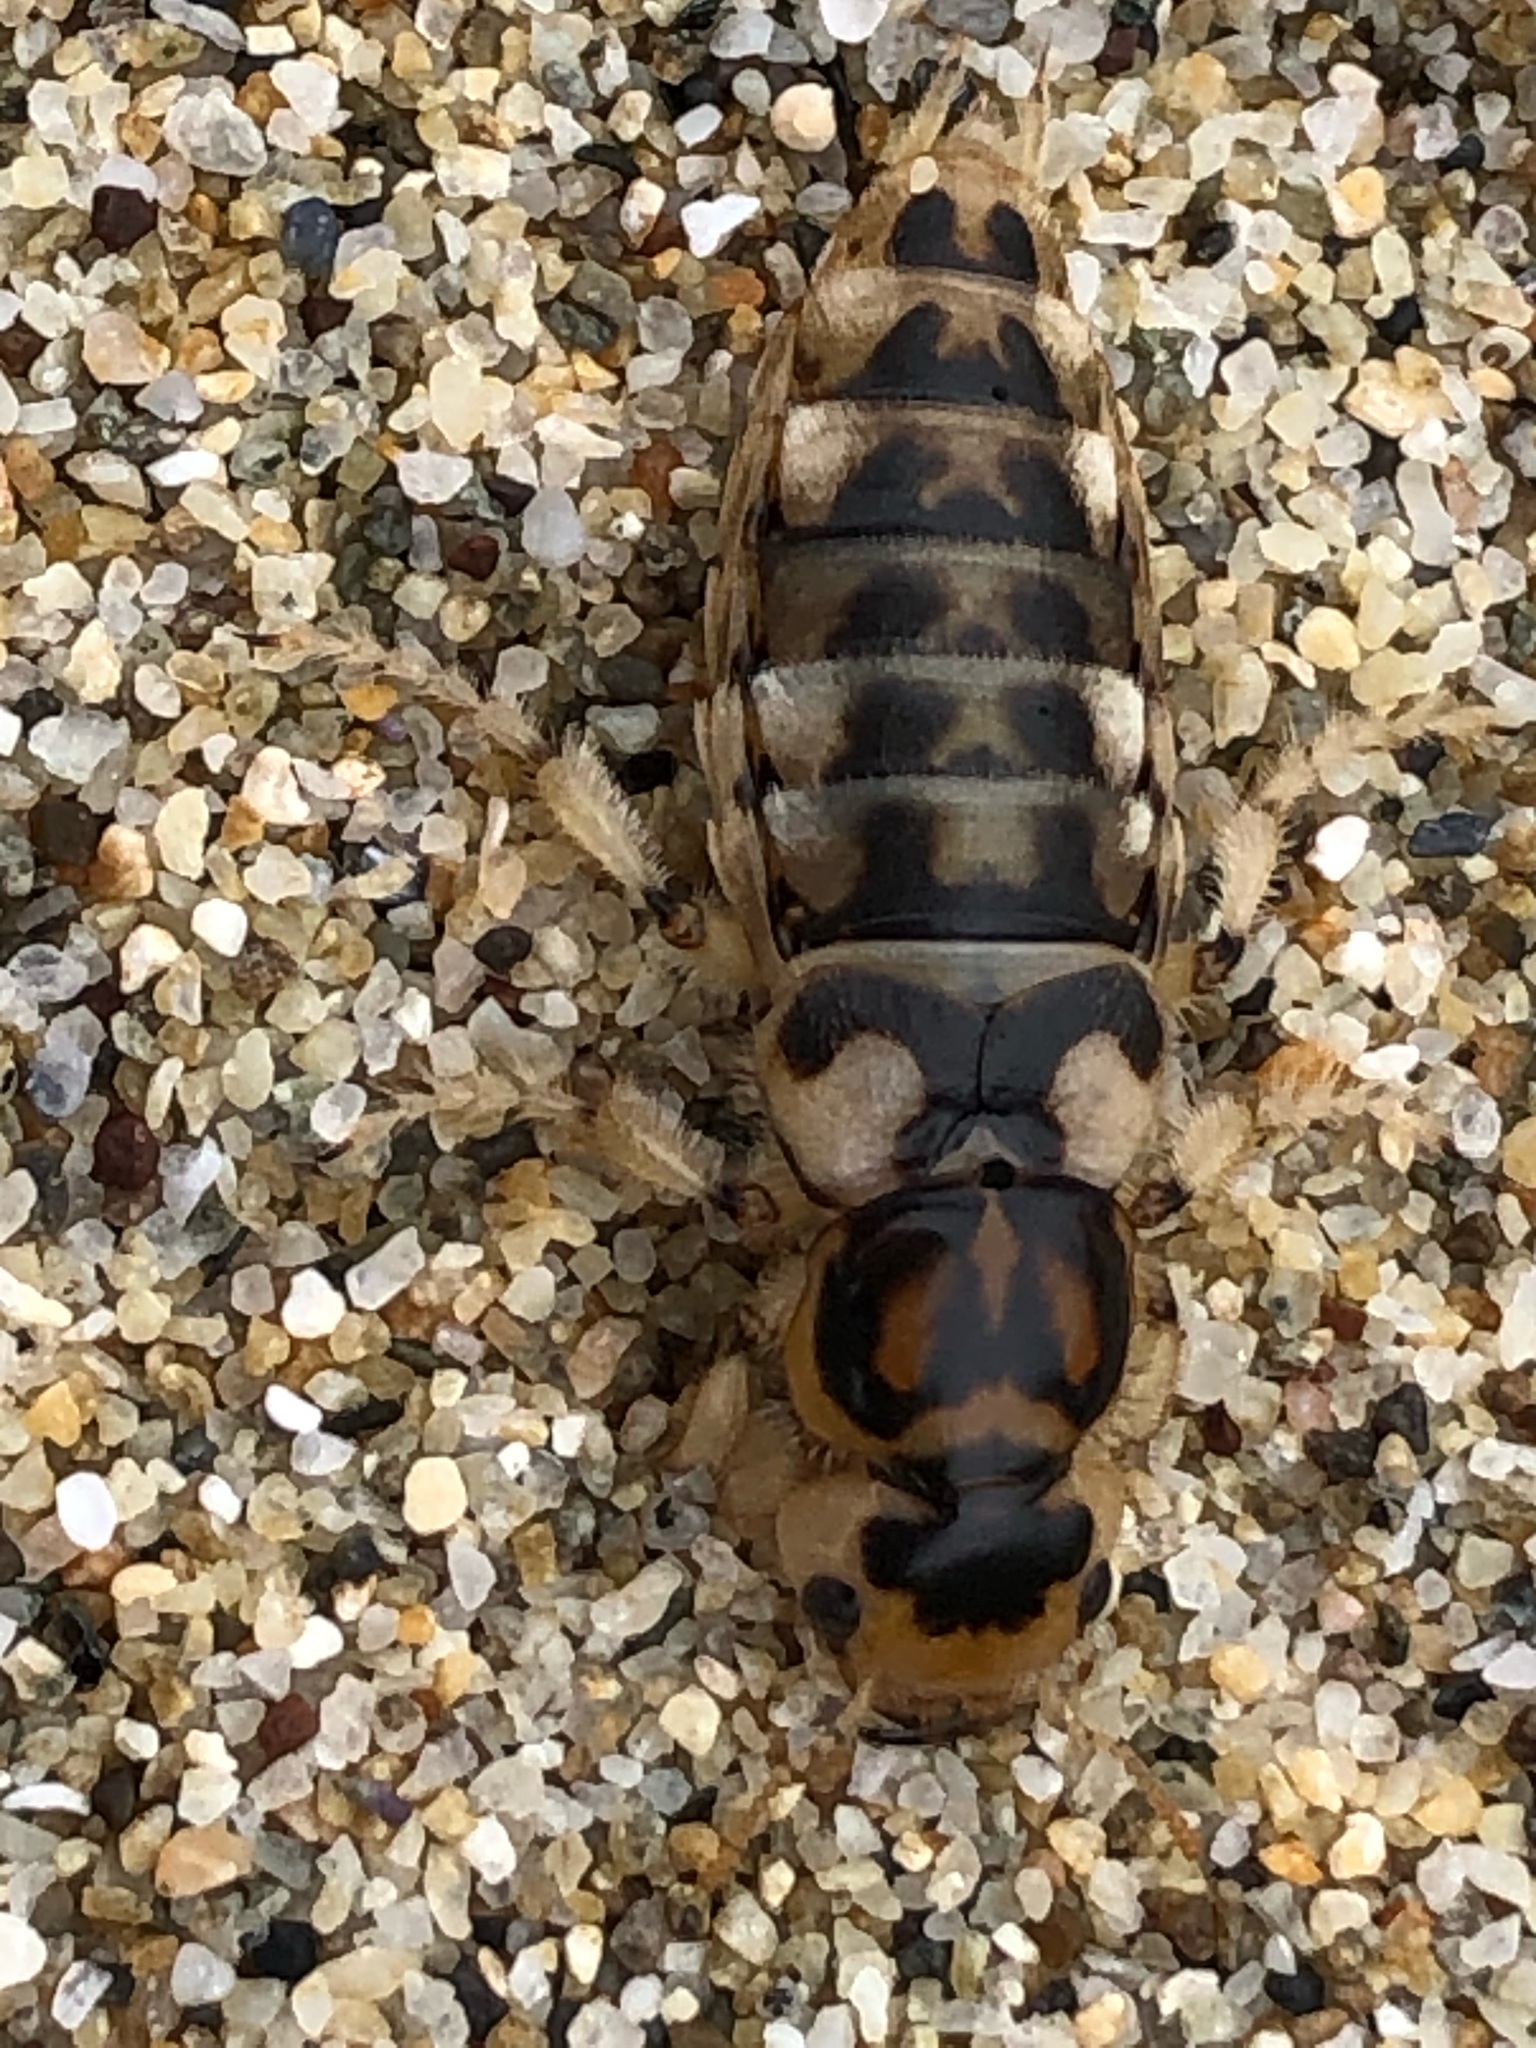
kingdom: Animalia
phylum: Arthropoda
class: Insecta
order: Coleoptera
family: Staphylinidae
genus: Thinopinus
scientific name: Thinopinus pictus
